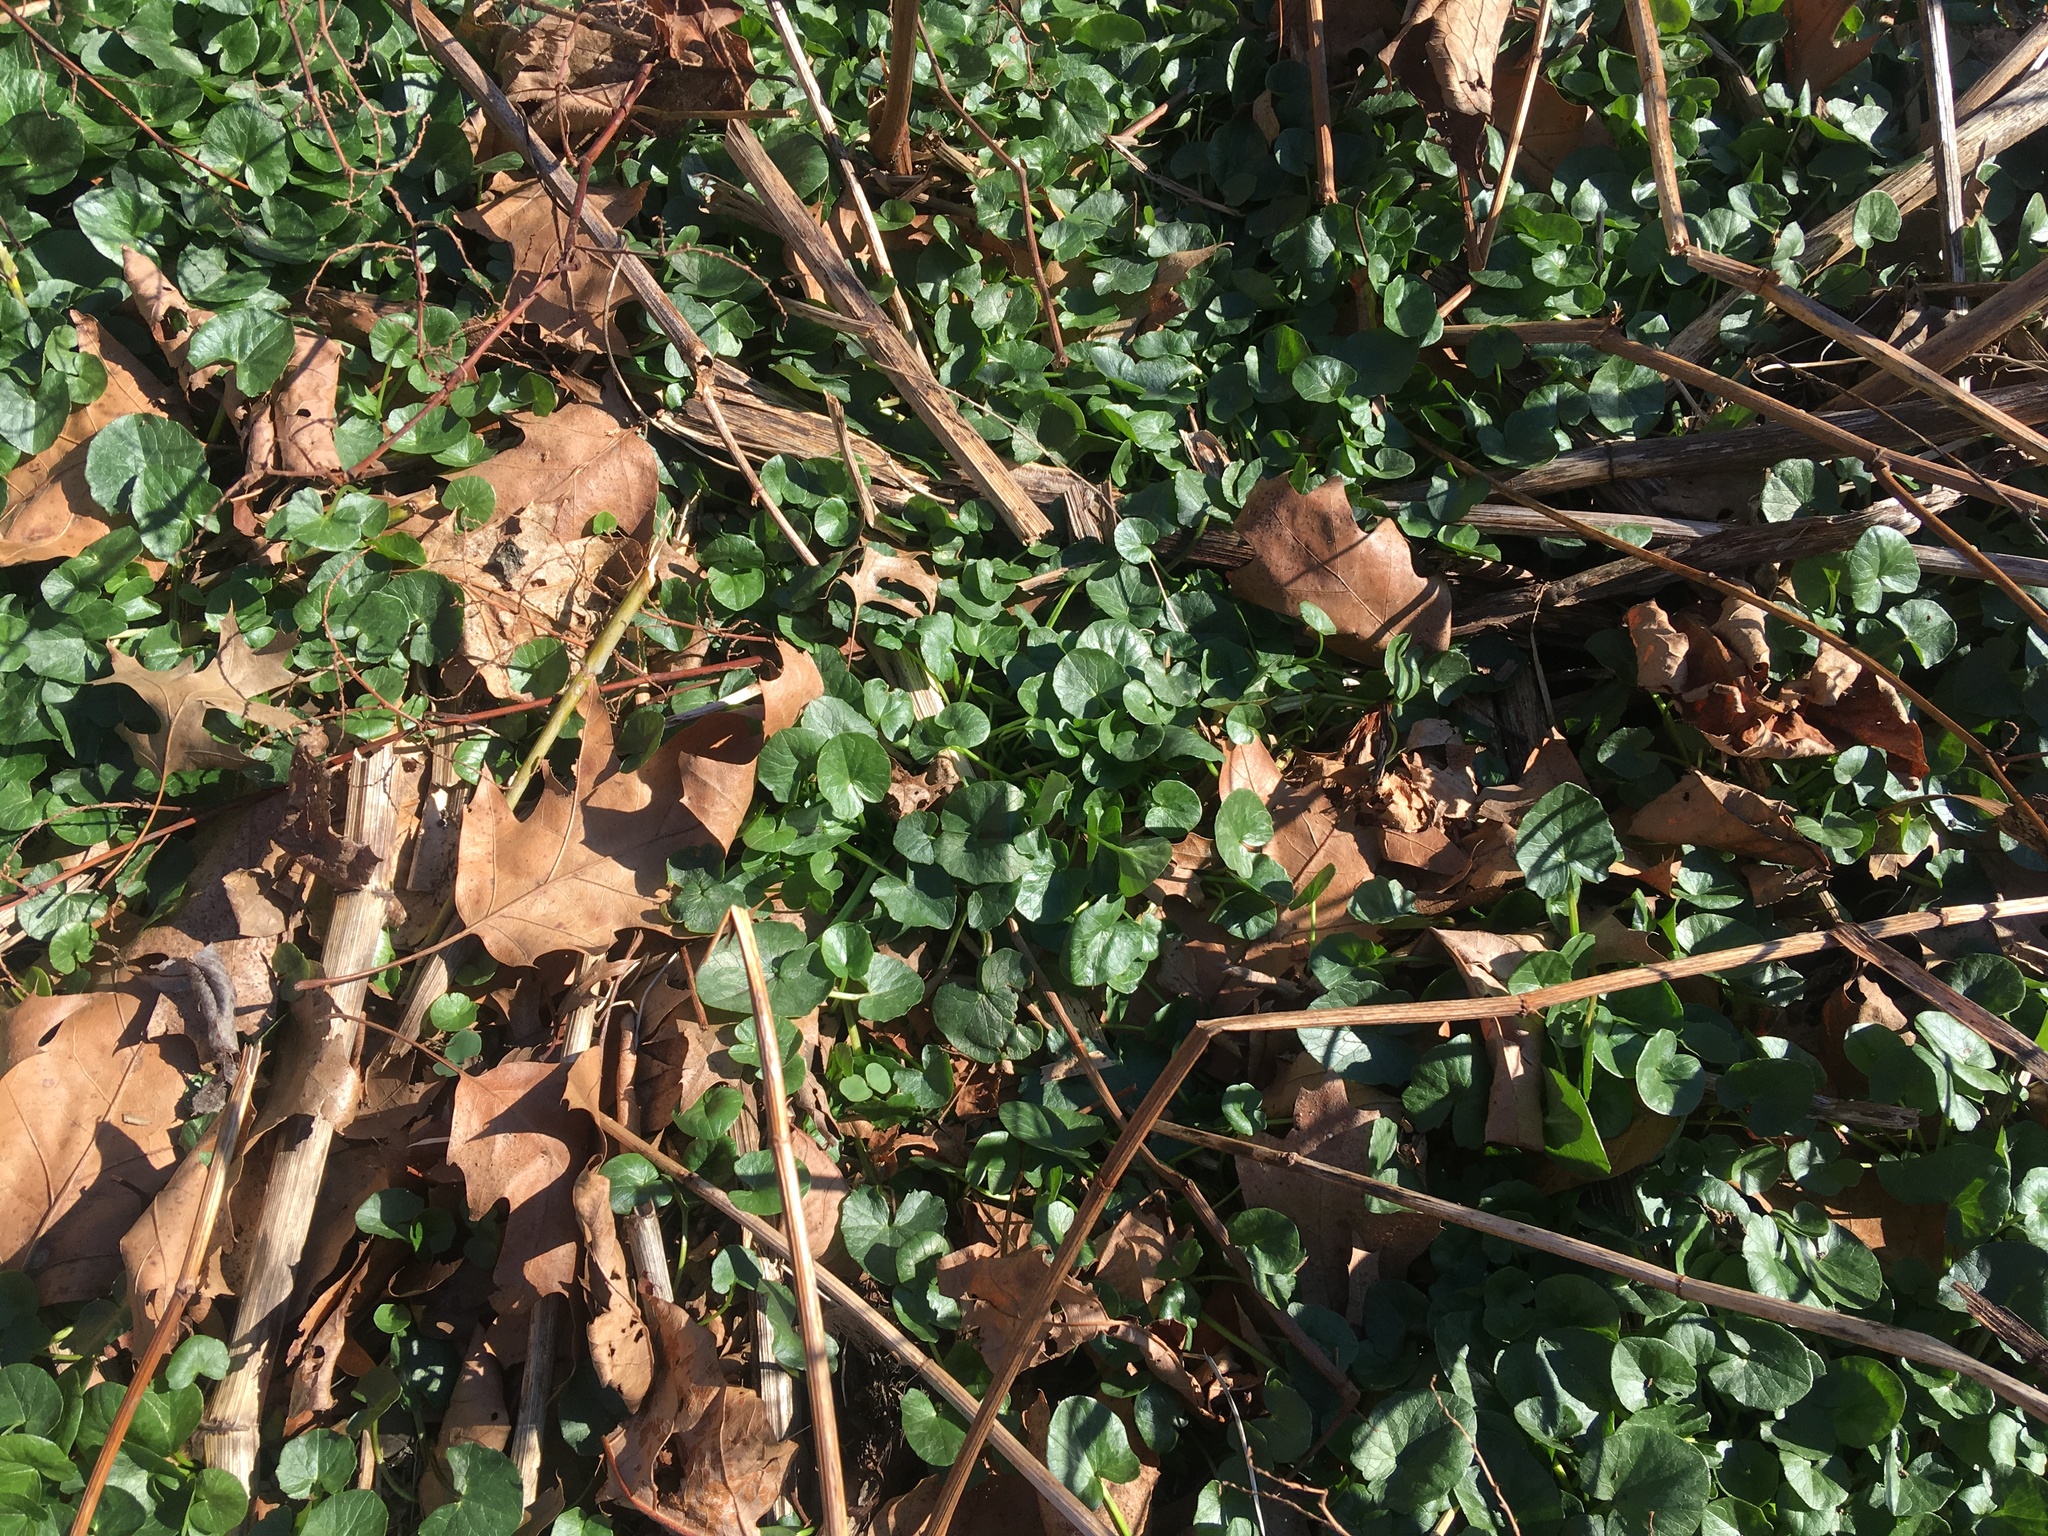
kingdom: Plantae
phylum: Tracheophyta
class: Magnoliopsida
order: Ranunculales
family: Ranunculaceae
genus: Ficaria
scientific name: Ficaria verna
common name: Lesser celandine
